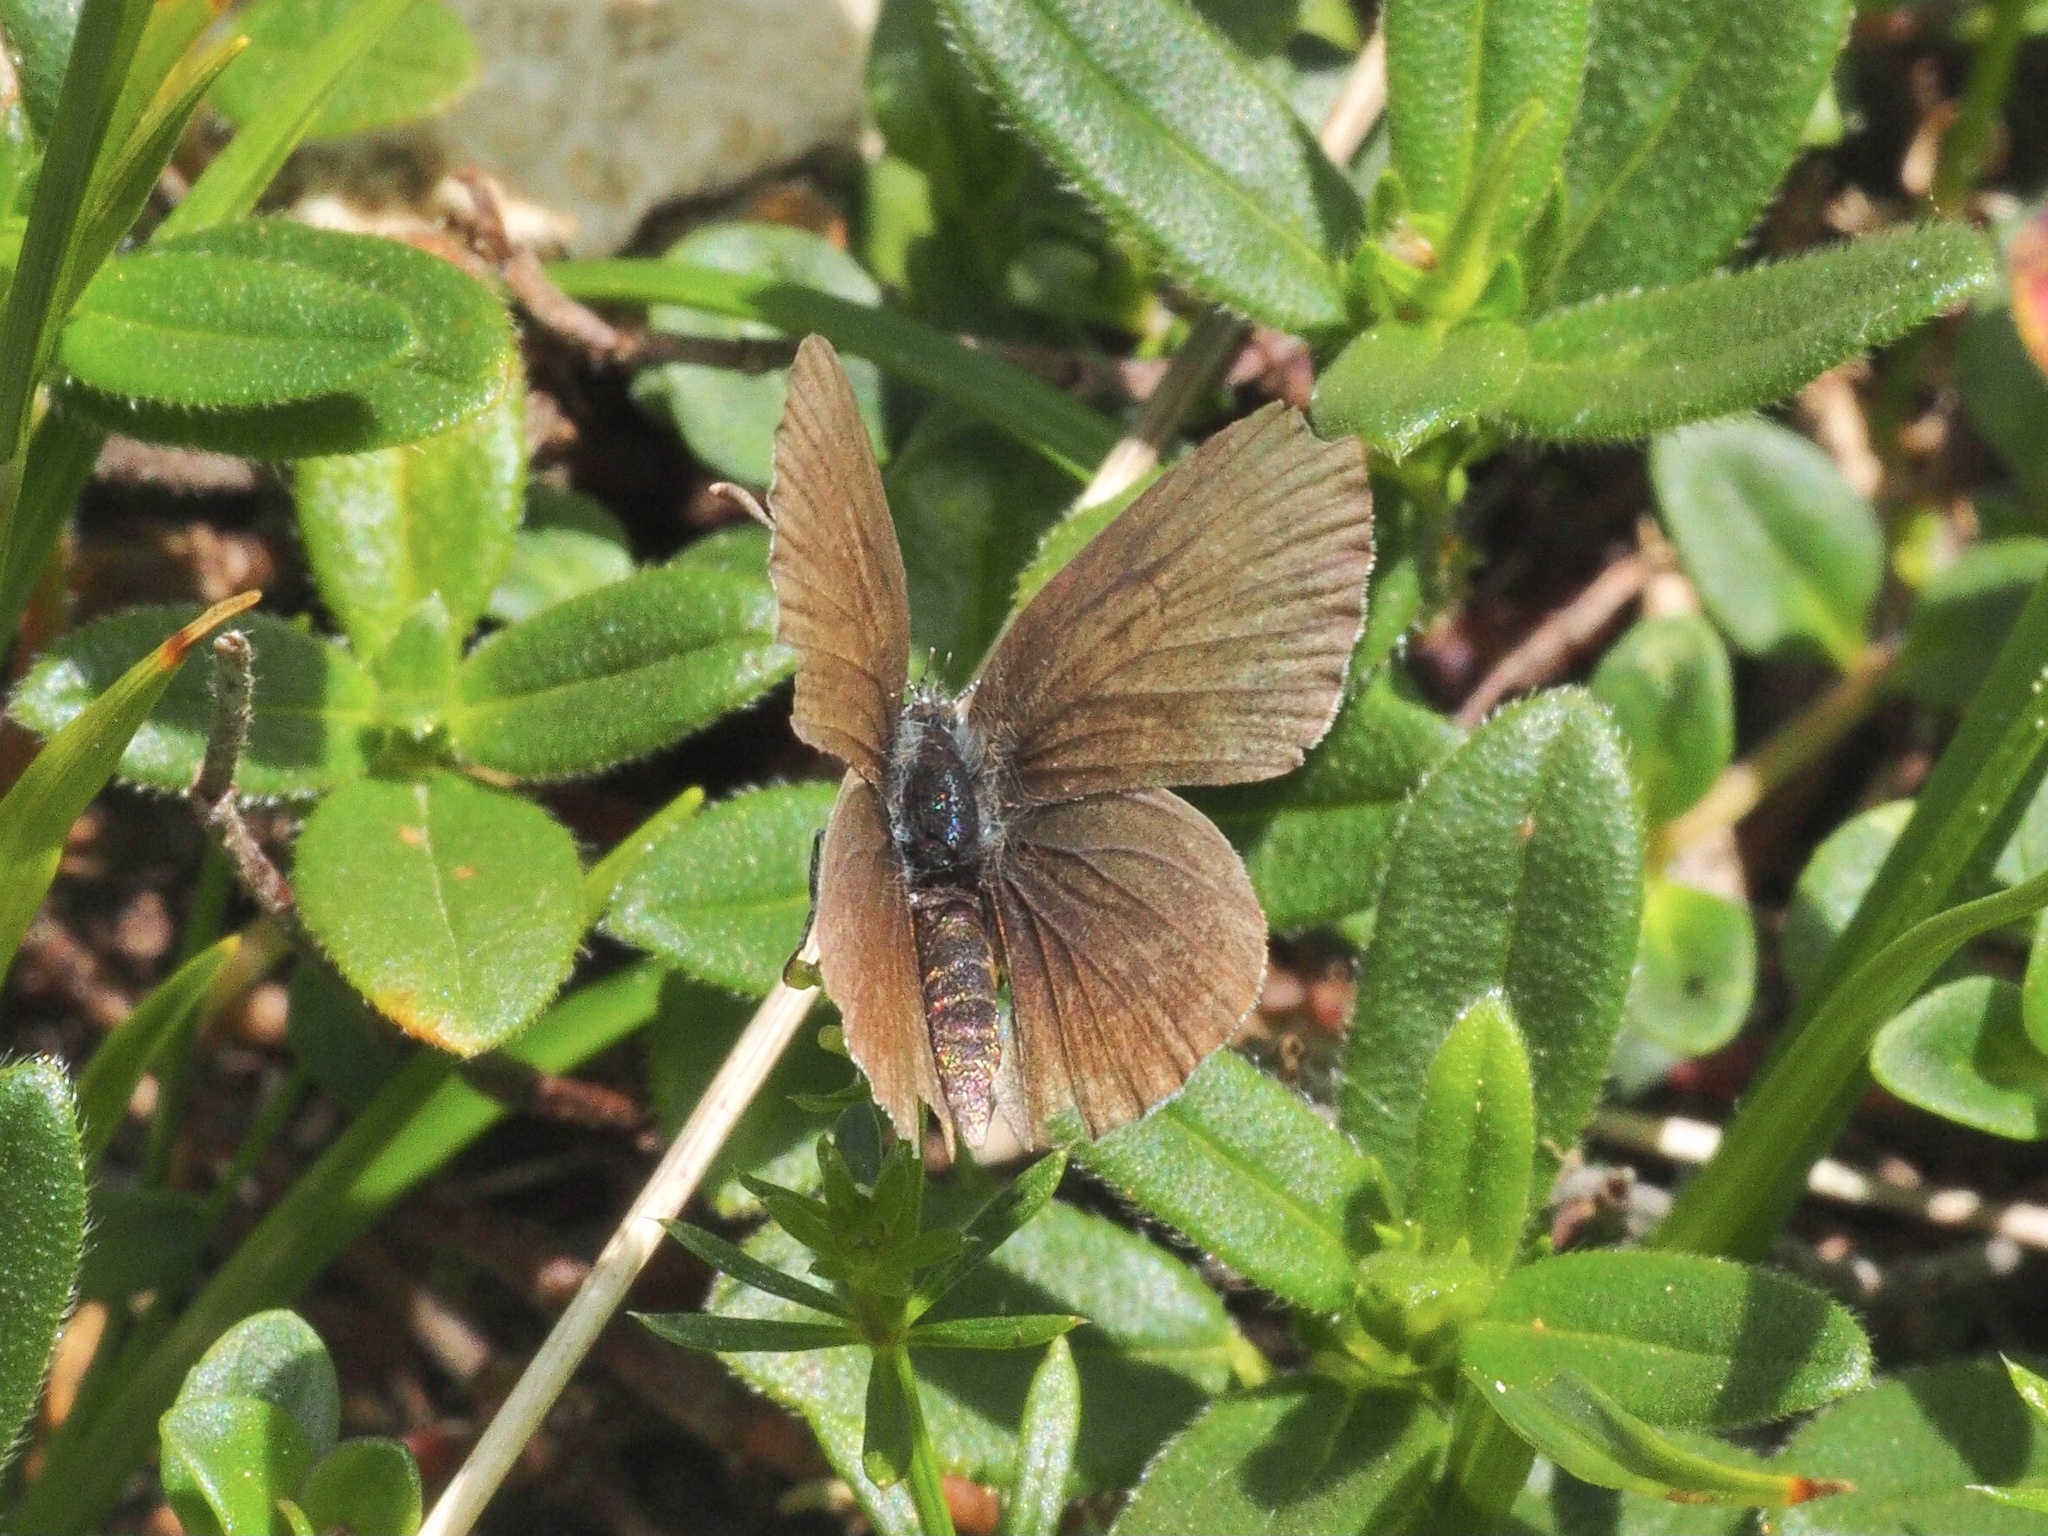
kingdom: Animalia
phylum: Arthropoda
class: Insecta
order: Lepidoptera
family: Lycaenidae
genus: Cupido
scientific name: Cupido minimus
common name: Small blue
